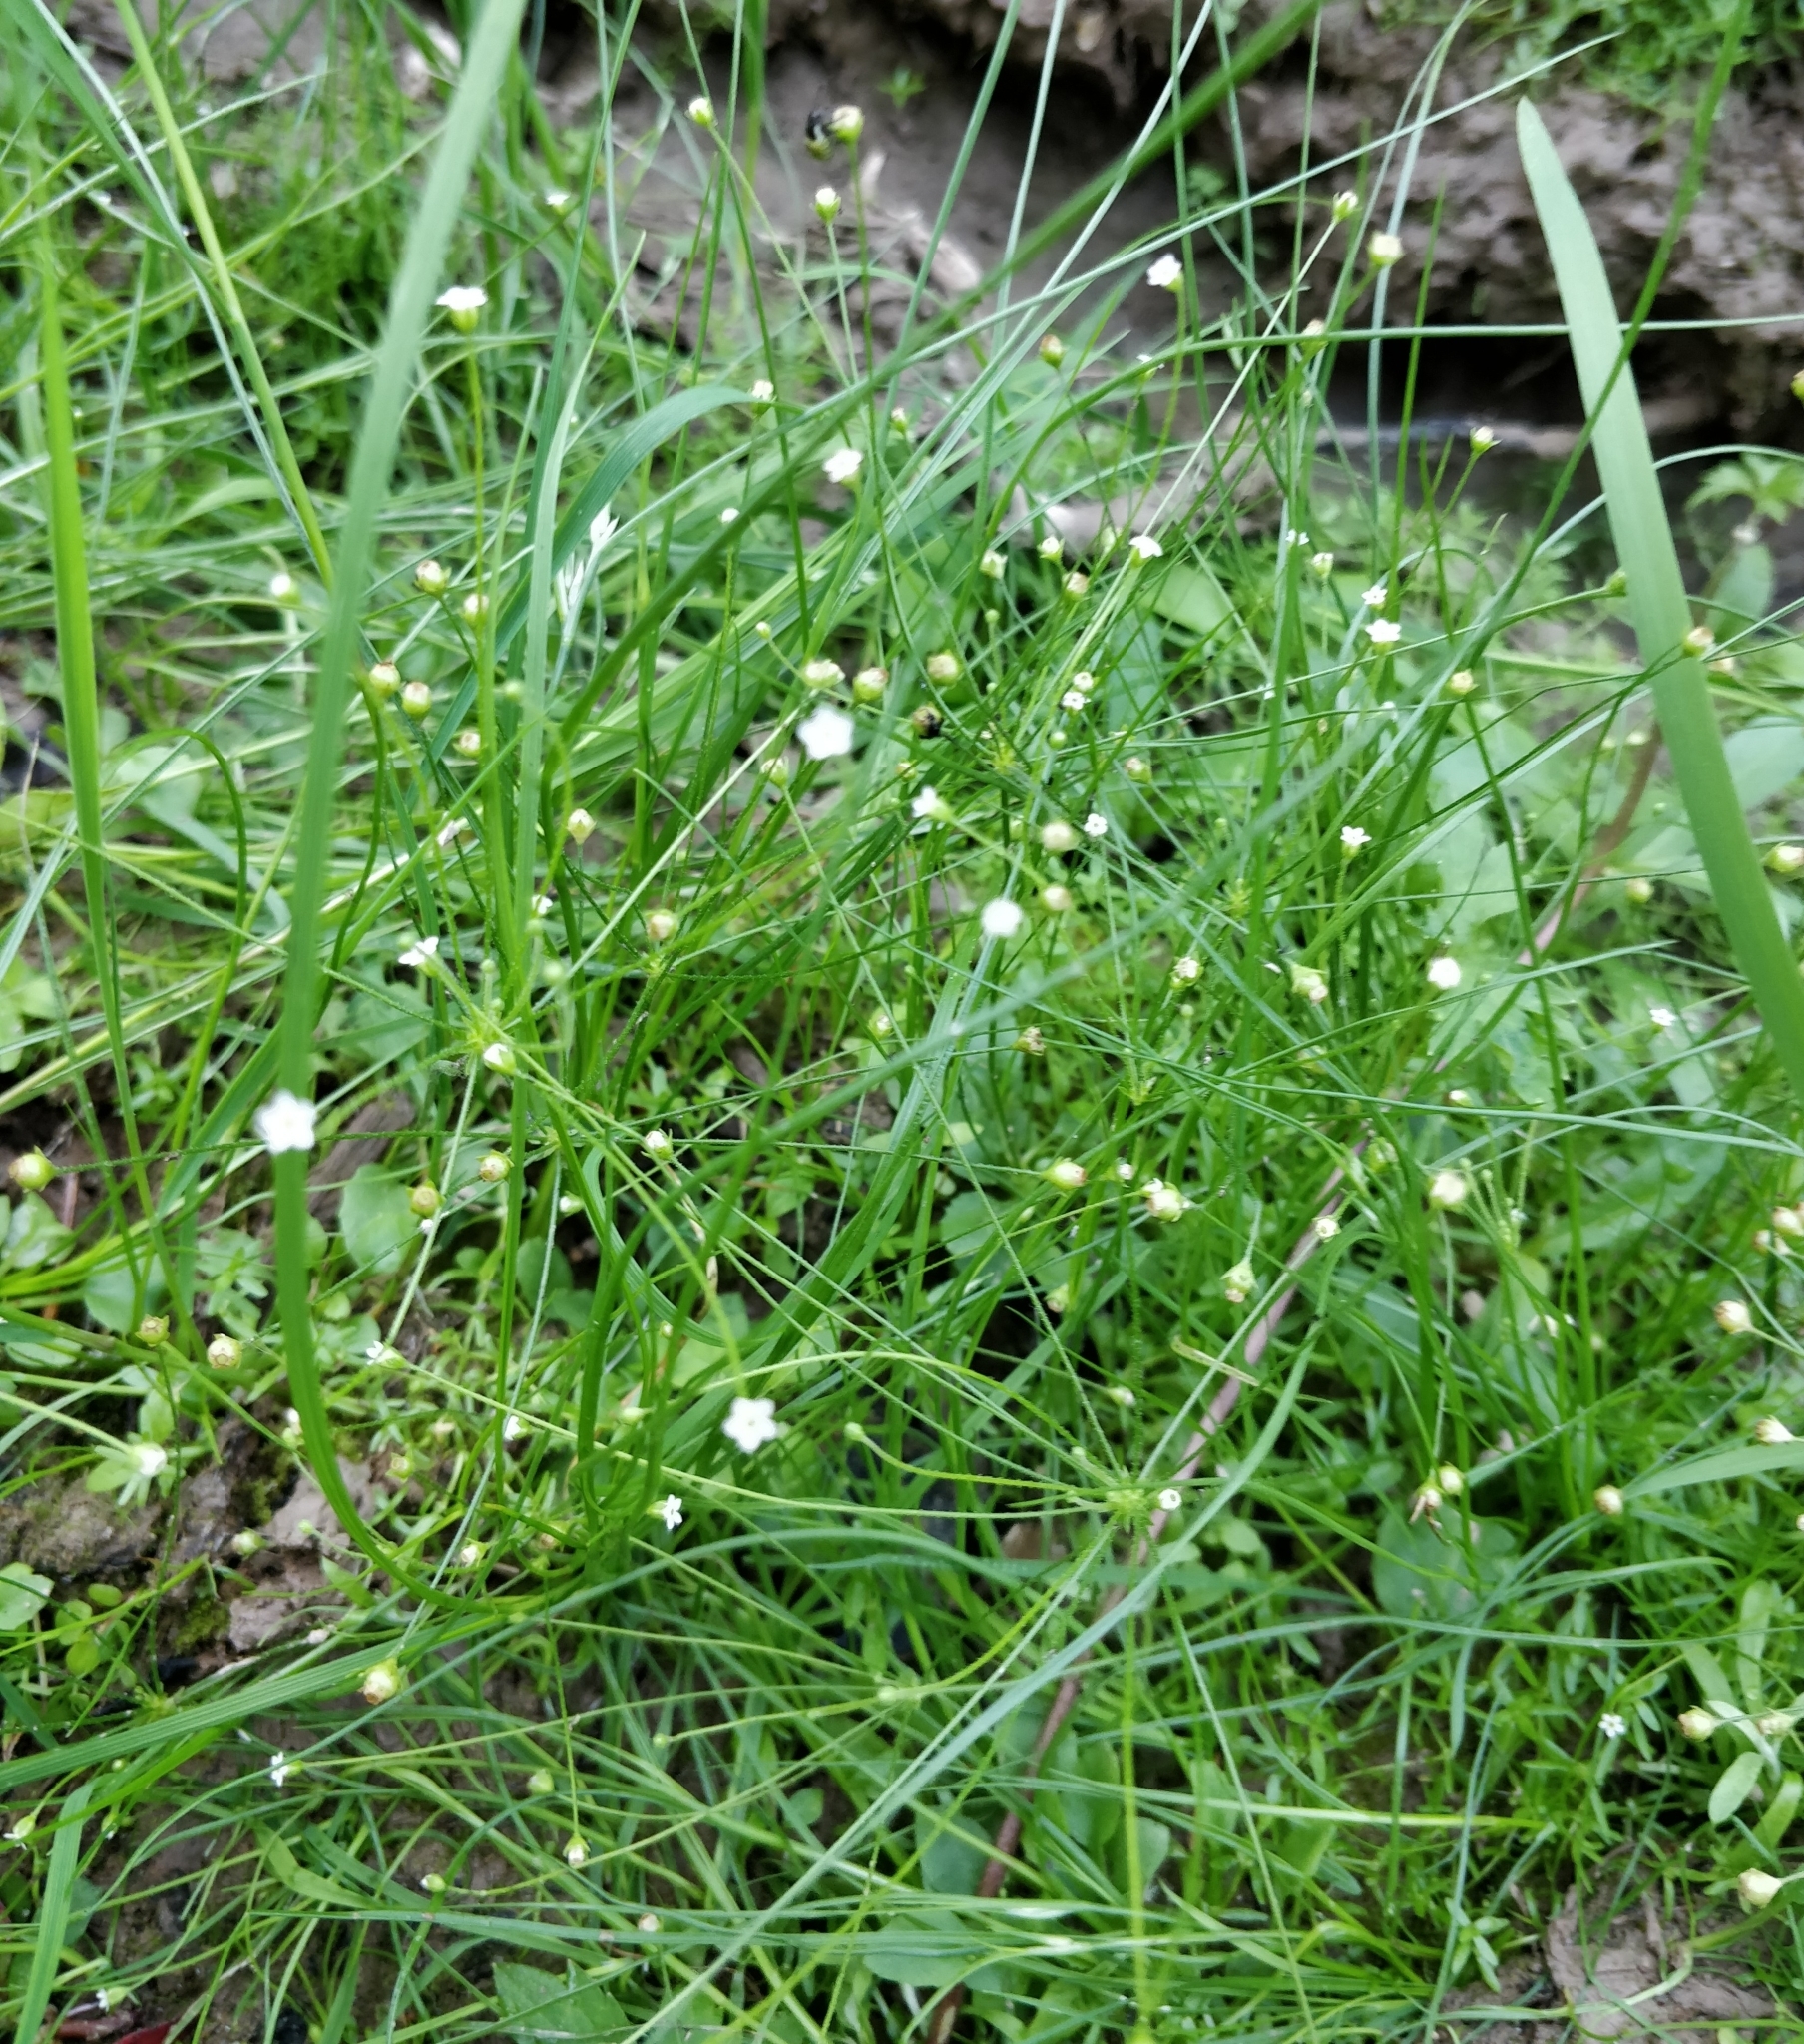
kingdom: Plantae
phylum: Tracheophyta
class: Magnoliopsida
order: Ericales
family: Primulaceae
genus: Androsace
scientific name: Androsace filiformis
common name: Filiform rock jasmine
